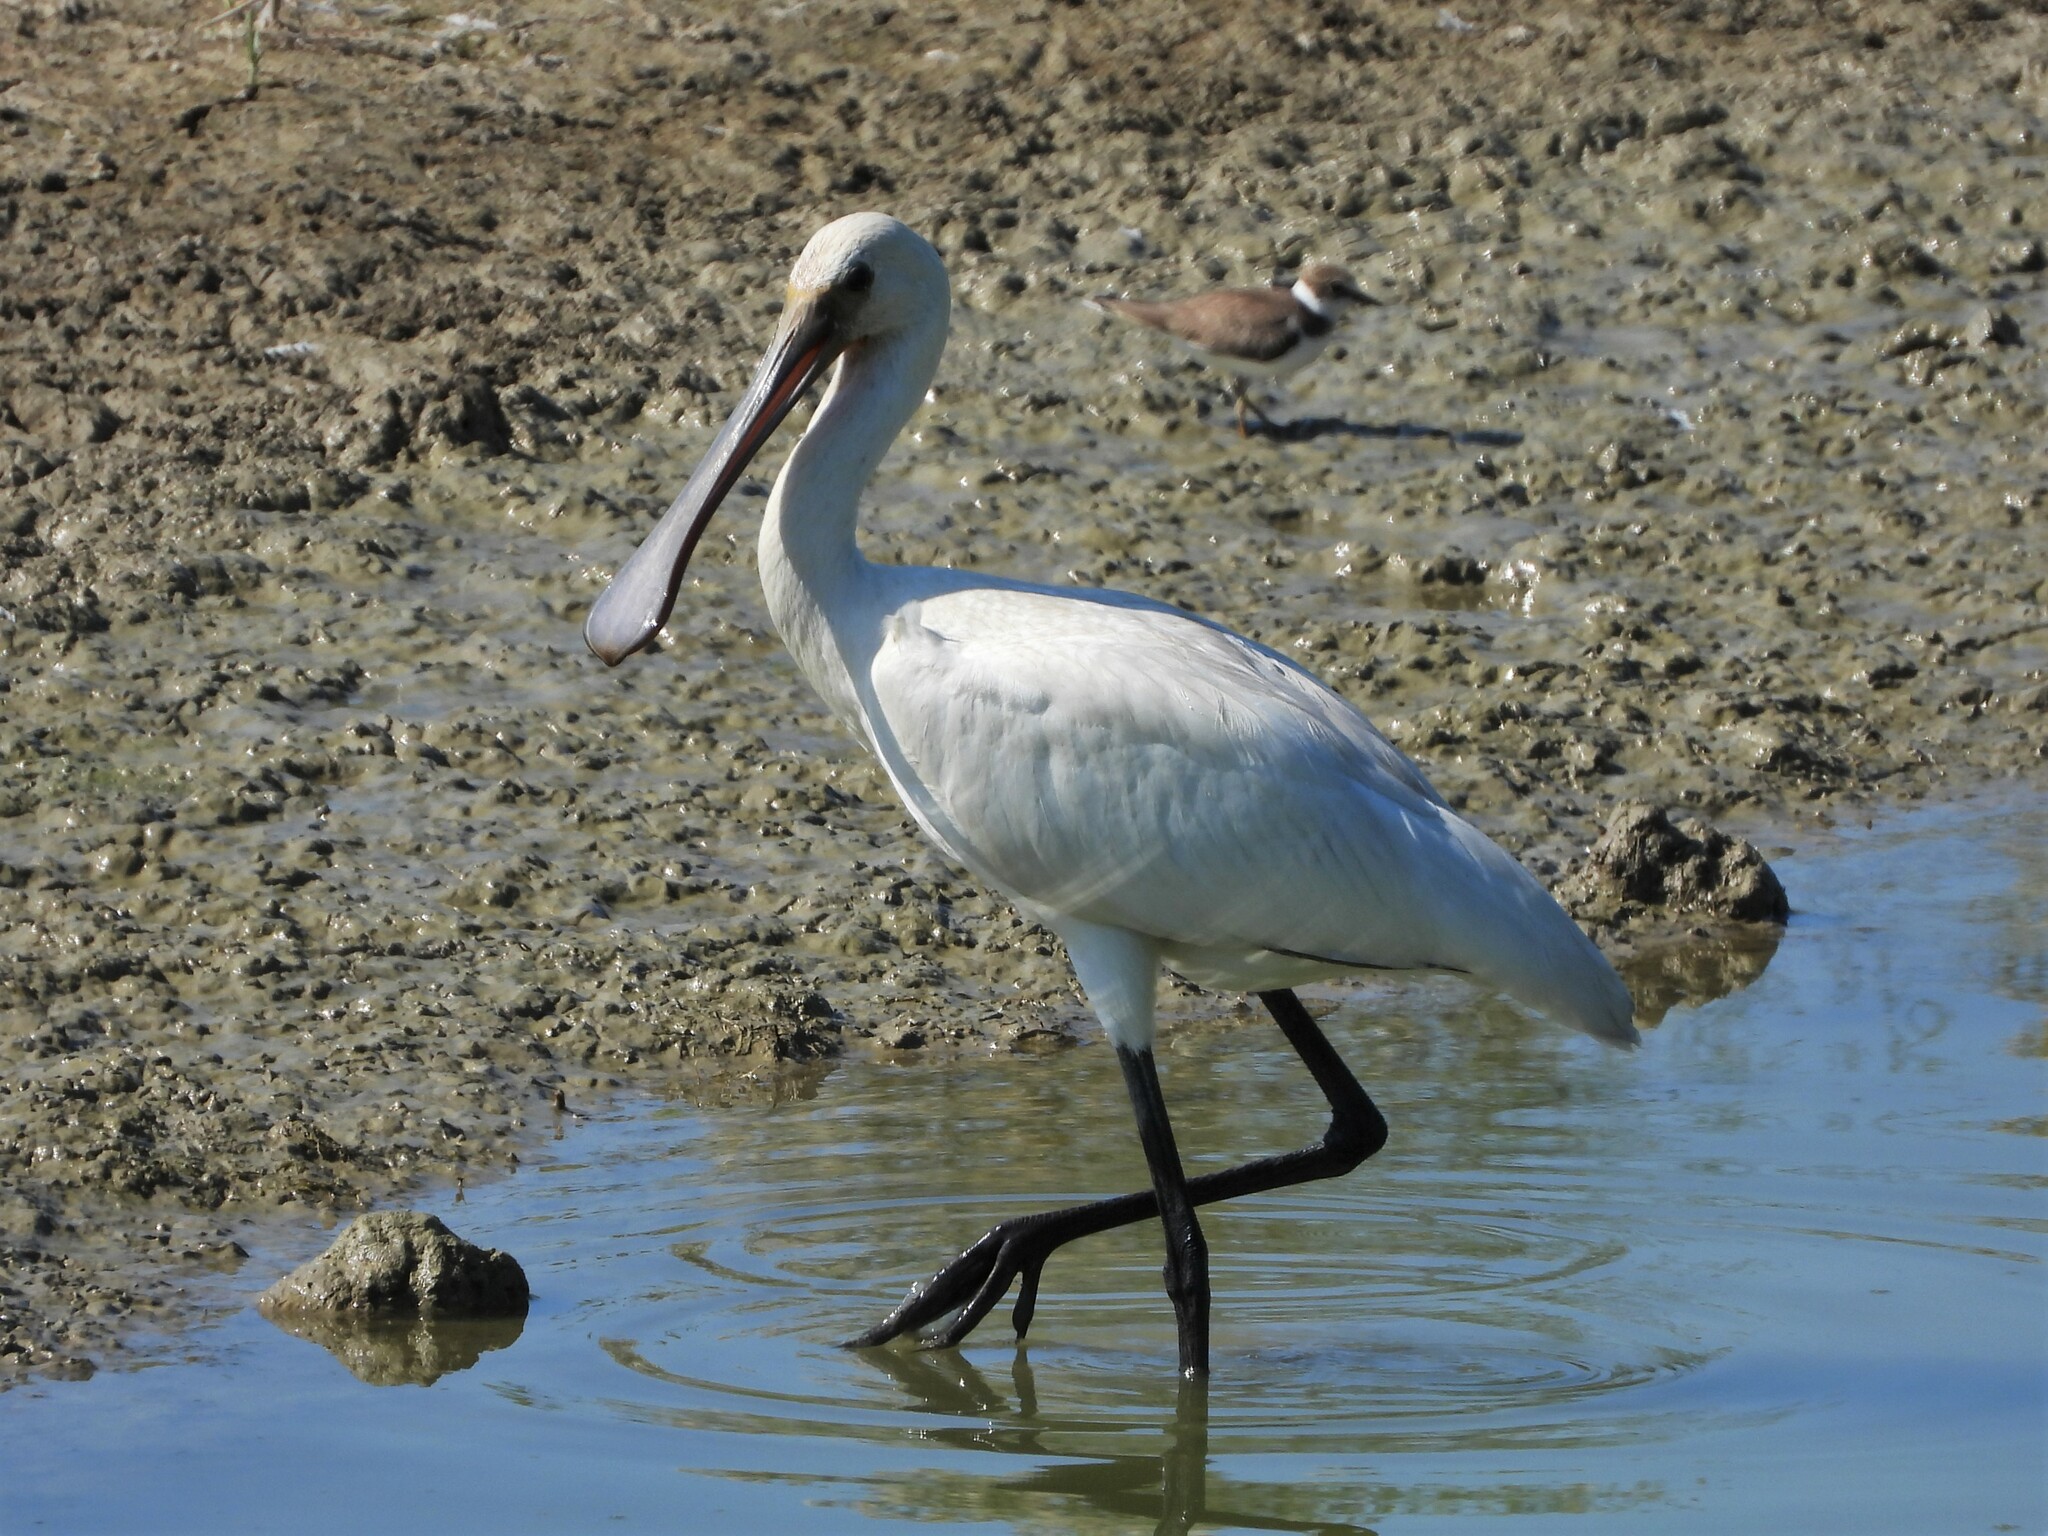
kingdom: Animalia
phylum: Chordata
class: Aves
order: Pelecaniformes
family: Threskiornithidae
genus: Platalea
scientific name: Platalea leucorodia
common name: Eurasian spoonbill
